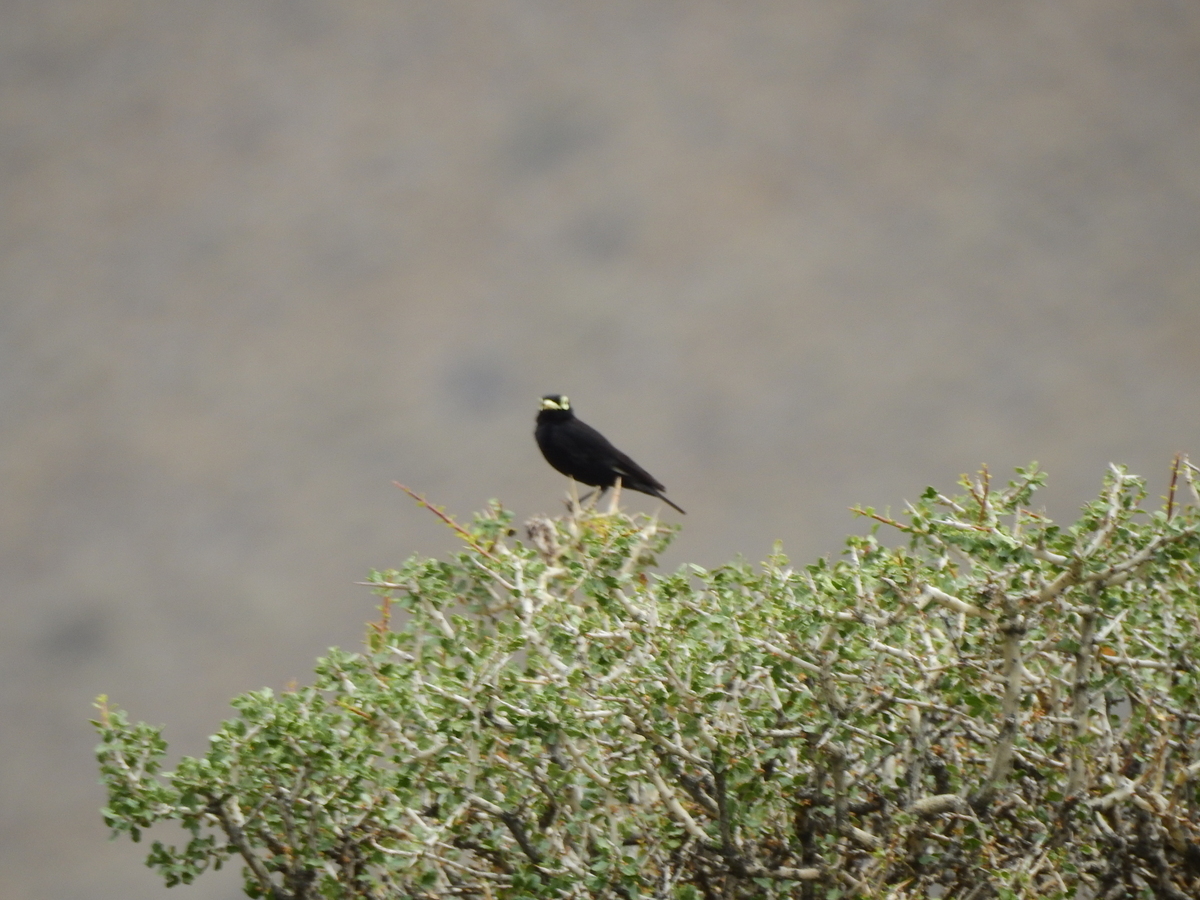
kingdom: Animalia
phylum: Chordata
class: Aves
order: Passeriformes
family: Tyrannidae
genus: Hymenops
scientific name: Hymenops perspicillatus
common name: Spectacled tyrant
